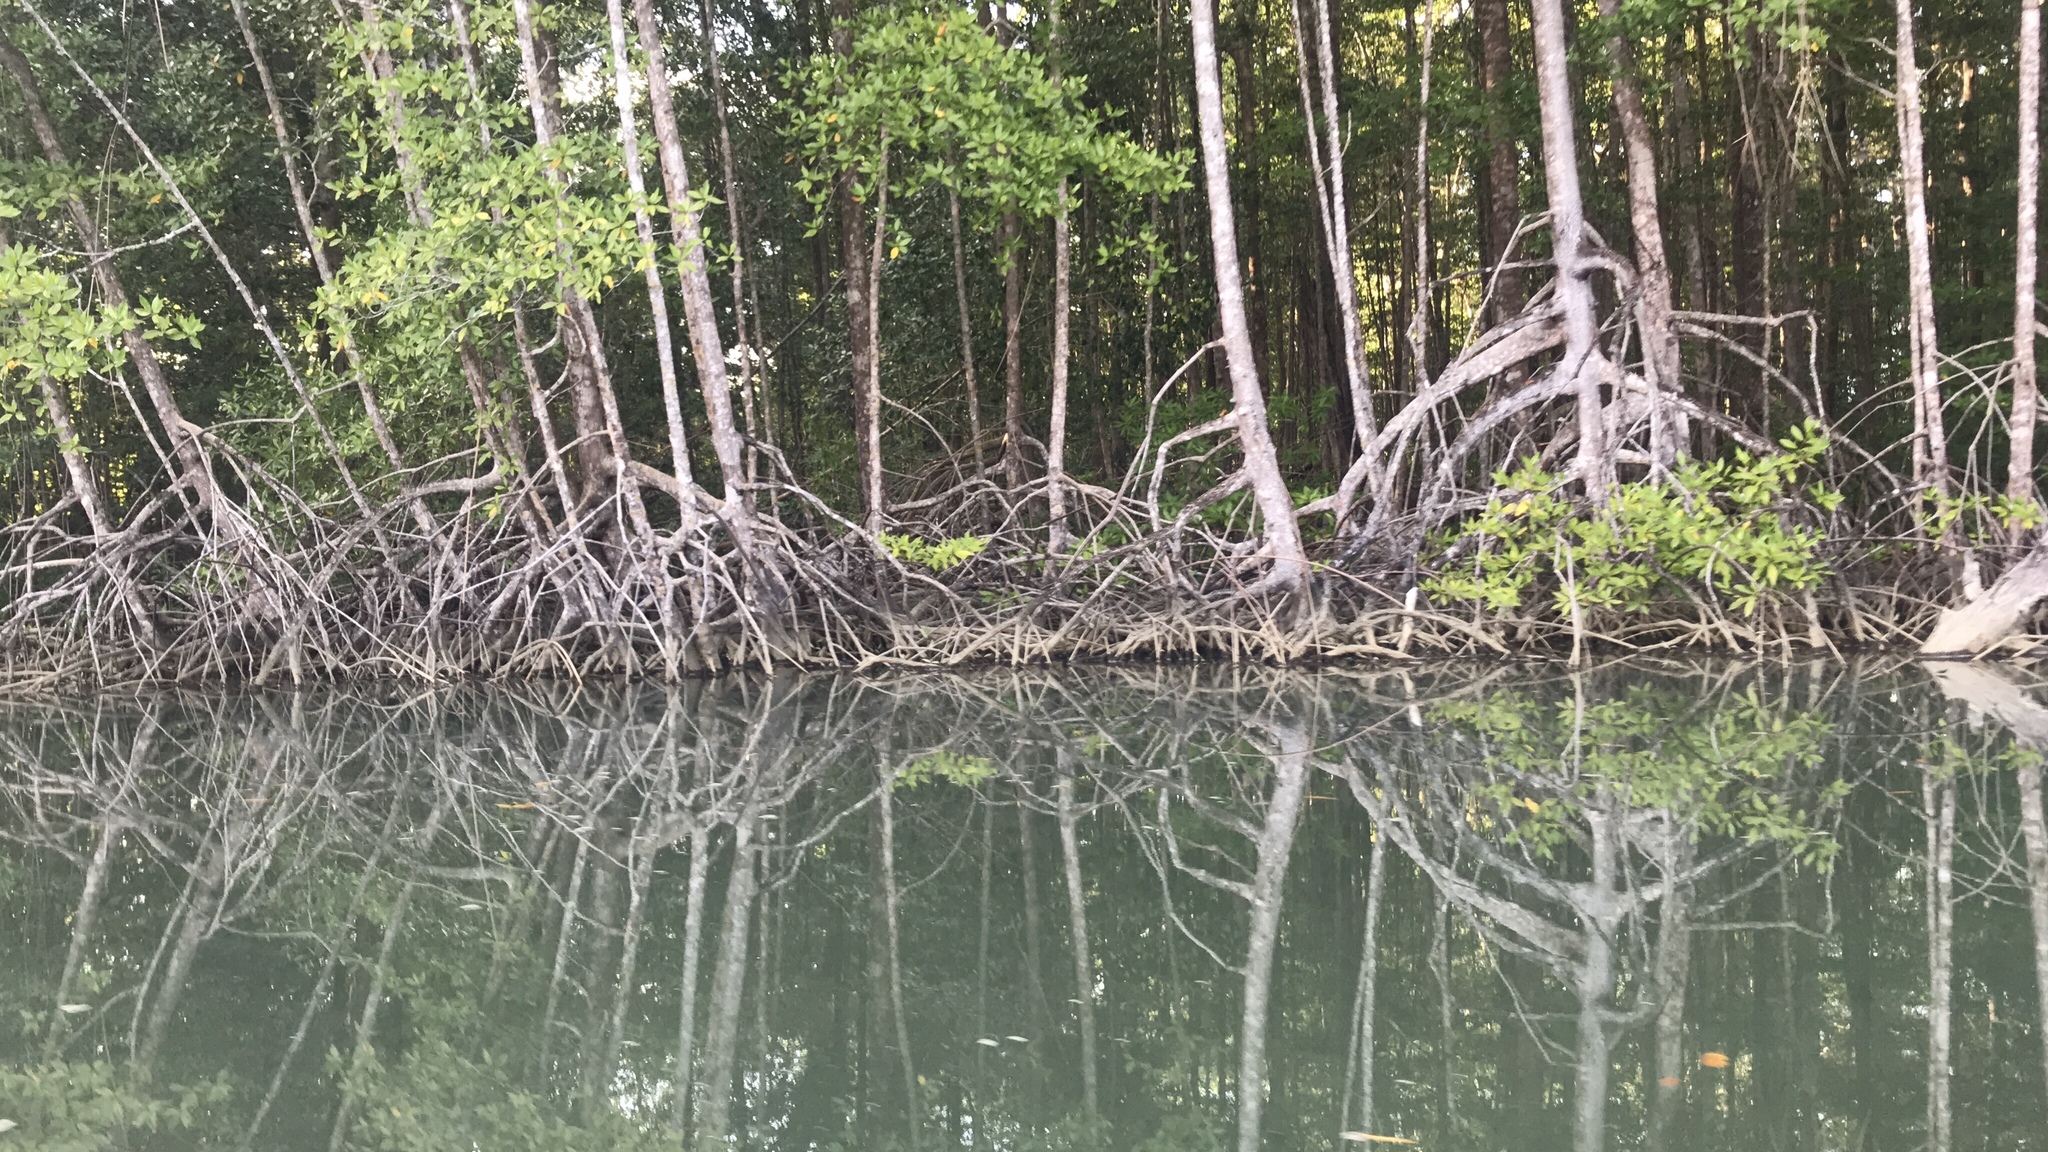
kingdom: Plantae
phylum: Tracheophyta
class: Magnoliopsida
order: Malpighiales
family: Rhizophoraceae
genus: Rhizophora
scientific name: Rhizophora racemosa
